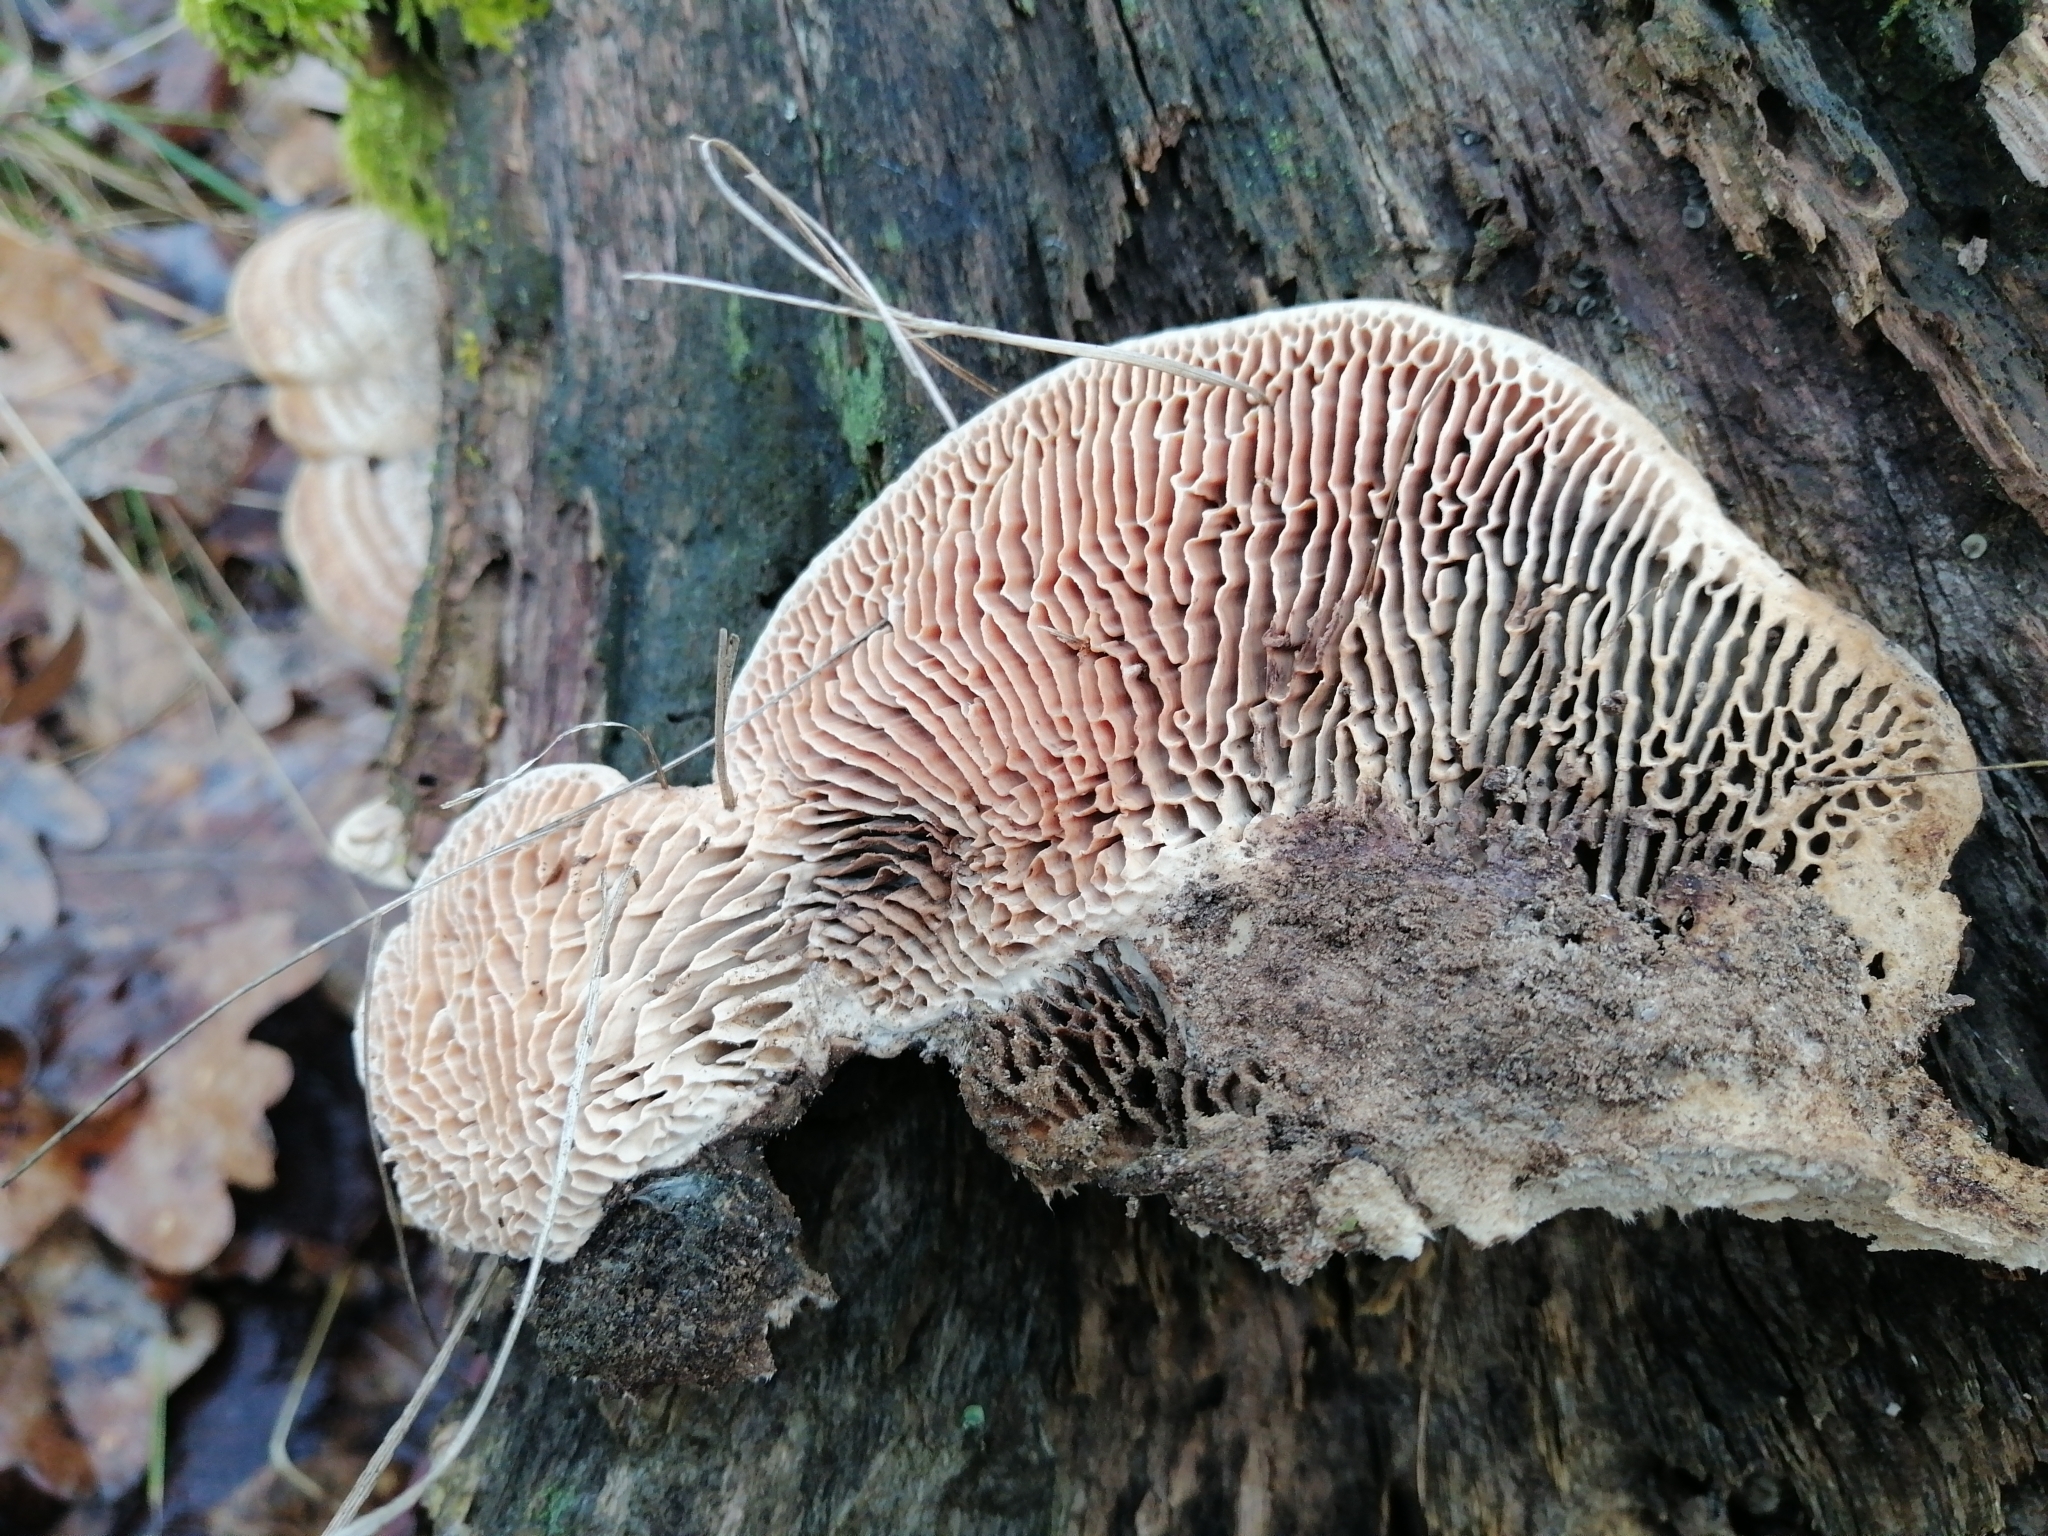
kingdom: Fungi
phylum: Basidiomycota
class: Agaricomycetes
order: Polyporales
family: Fomitopsidaceae
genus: Fomitopsis
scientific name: Fomitopsis
